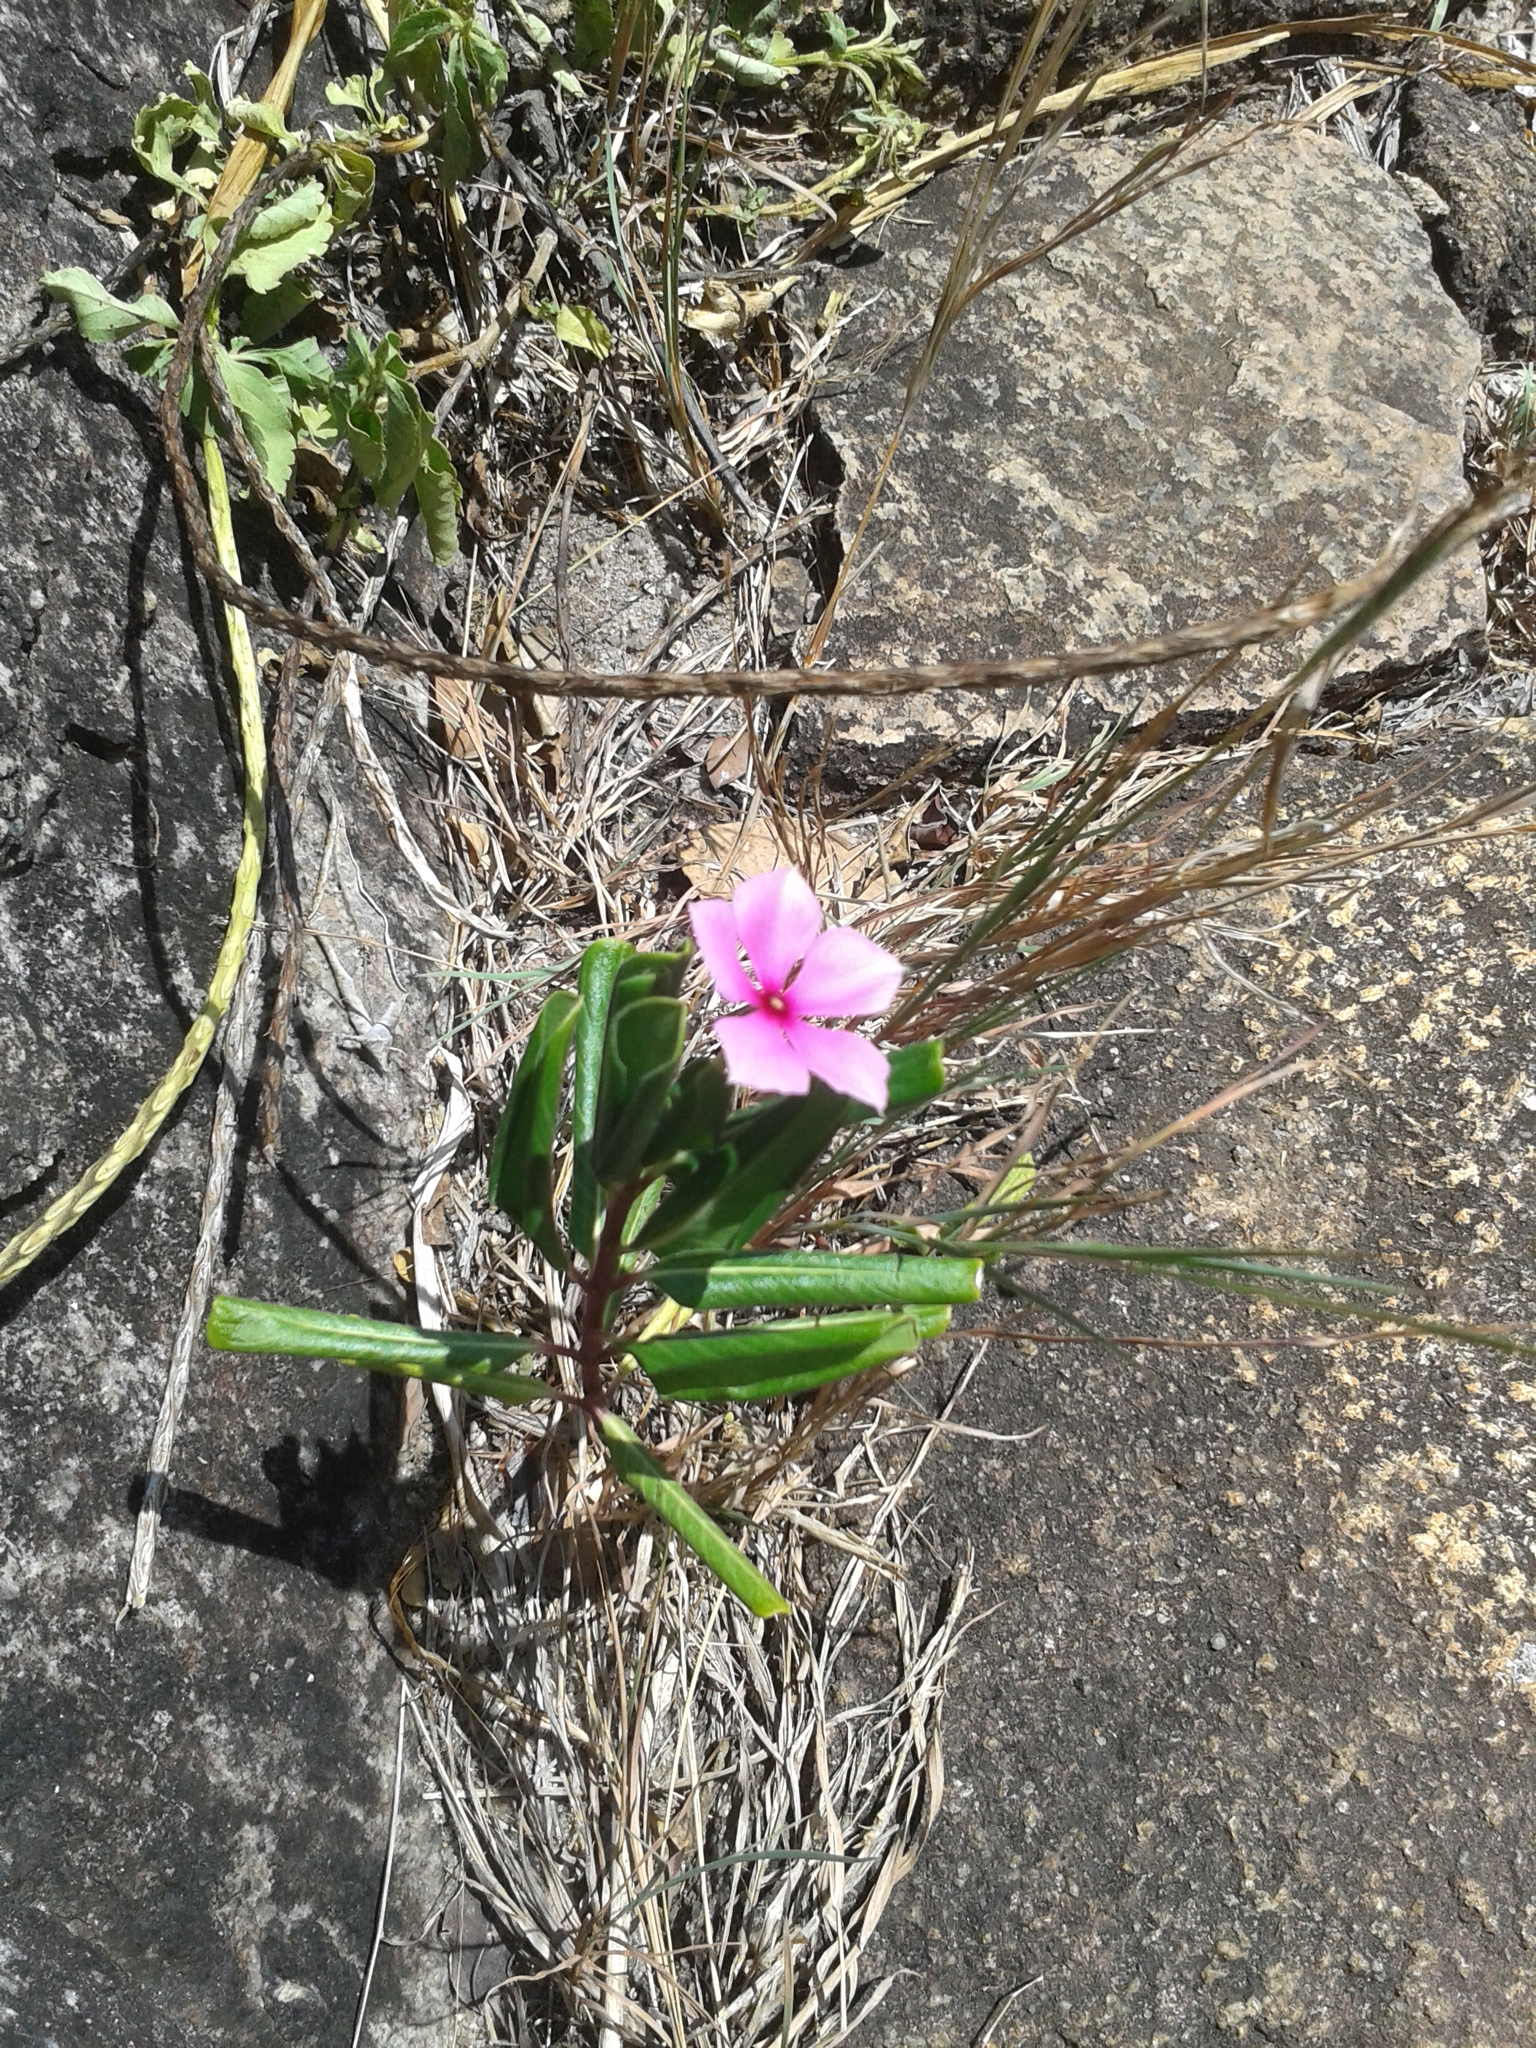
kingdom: Plantae
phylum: Tracheophyta
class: Magnoliopsida
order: Gentianales
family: Apocynaceae
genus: Catharanthus
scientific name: Catharanthus roseus
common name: Madagascar periwinkle
